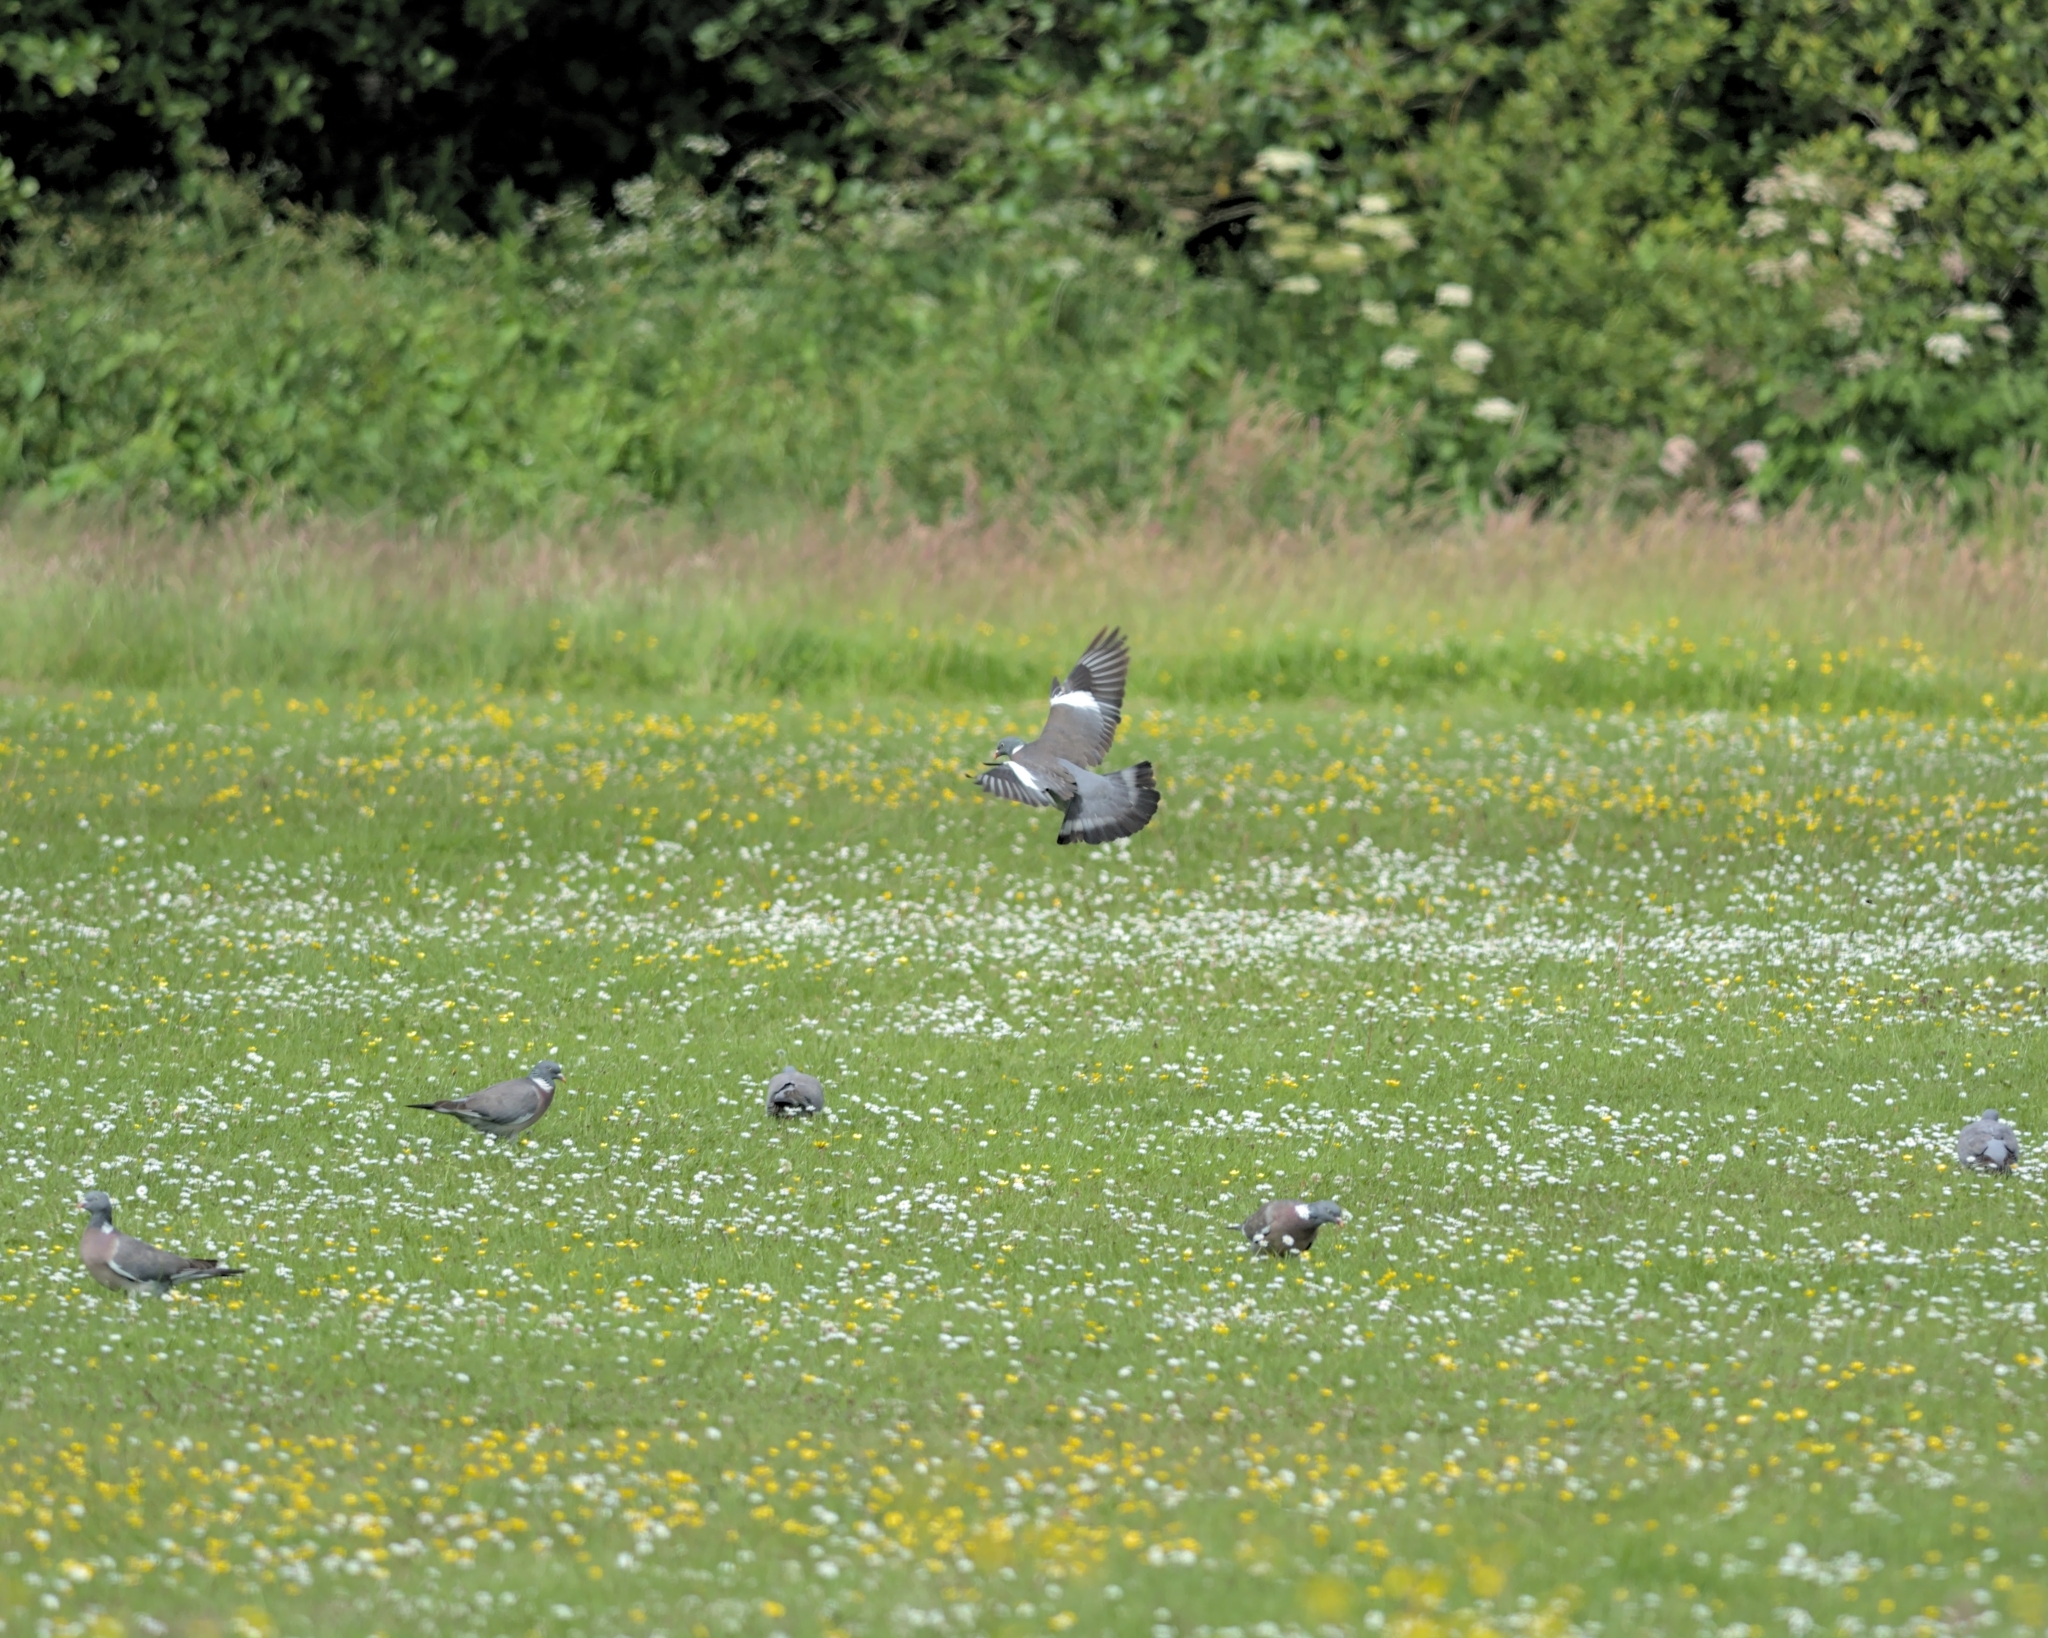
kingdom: Animalia
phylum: Chordata
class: Aves
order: Columbiformes
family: Columbidae
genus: Columba
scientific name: Columba palumbus
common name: Common wood pigeon
